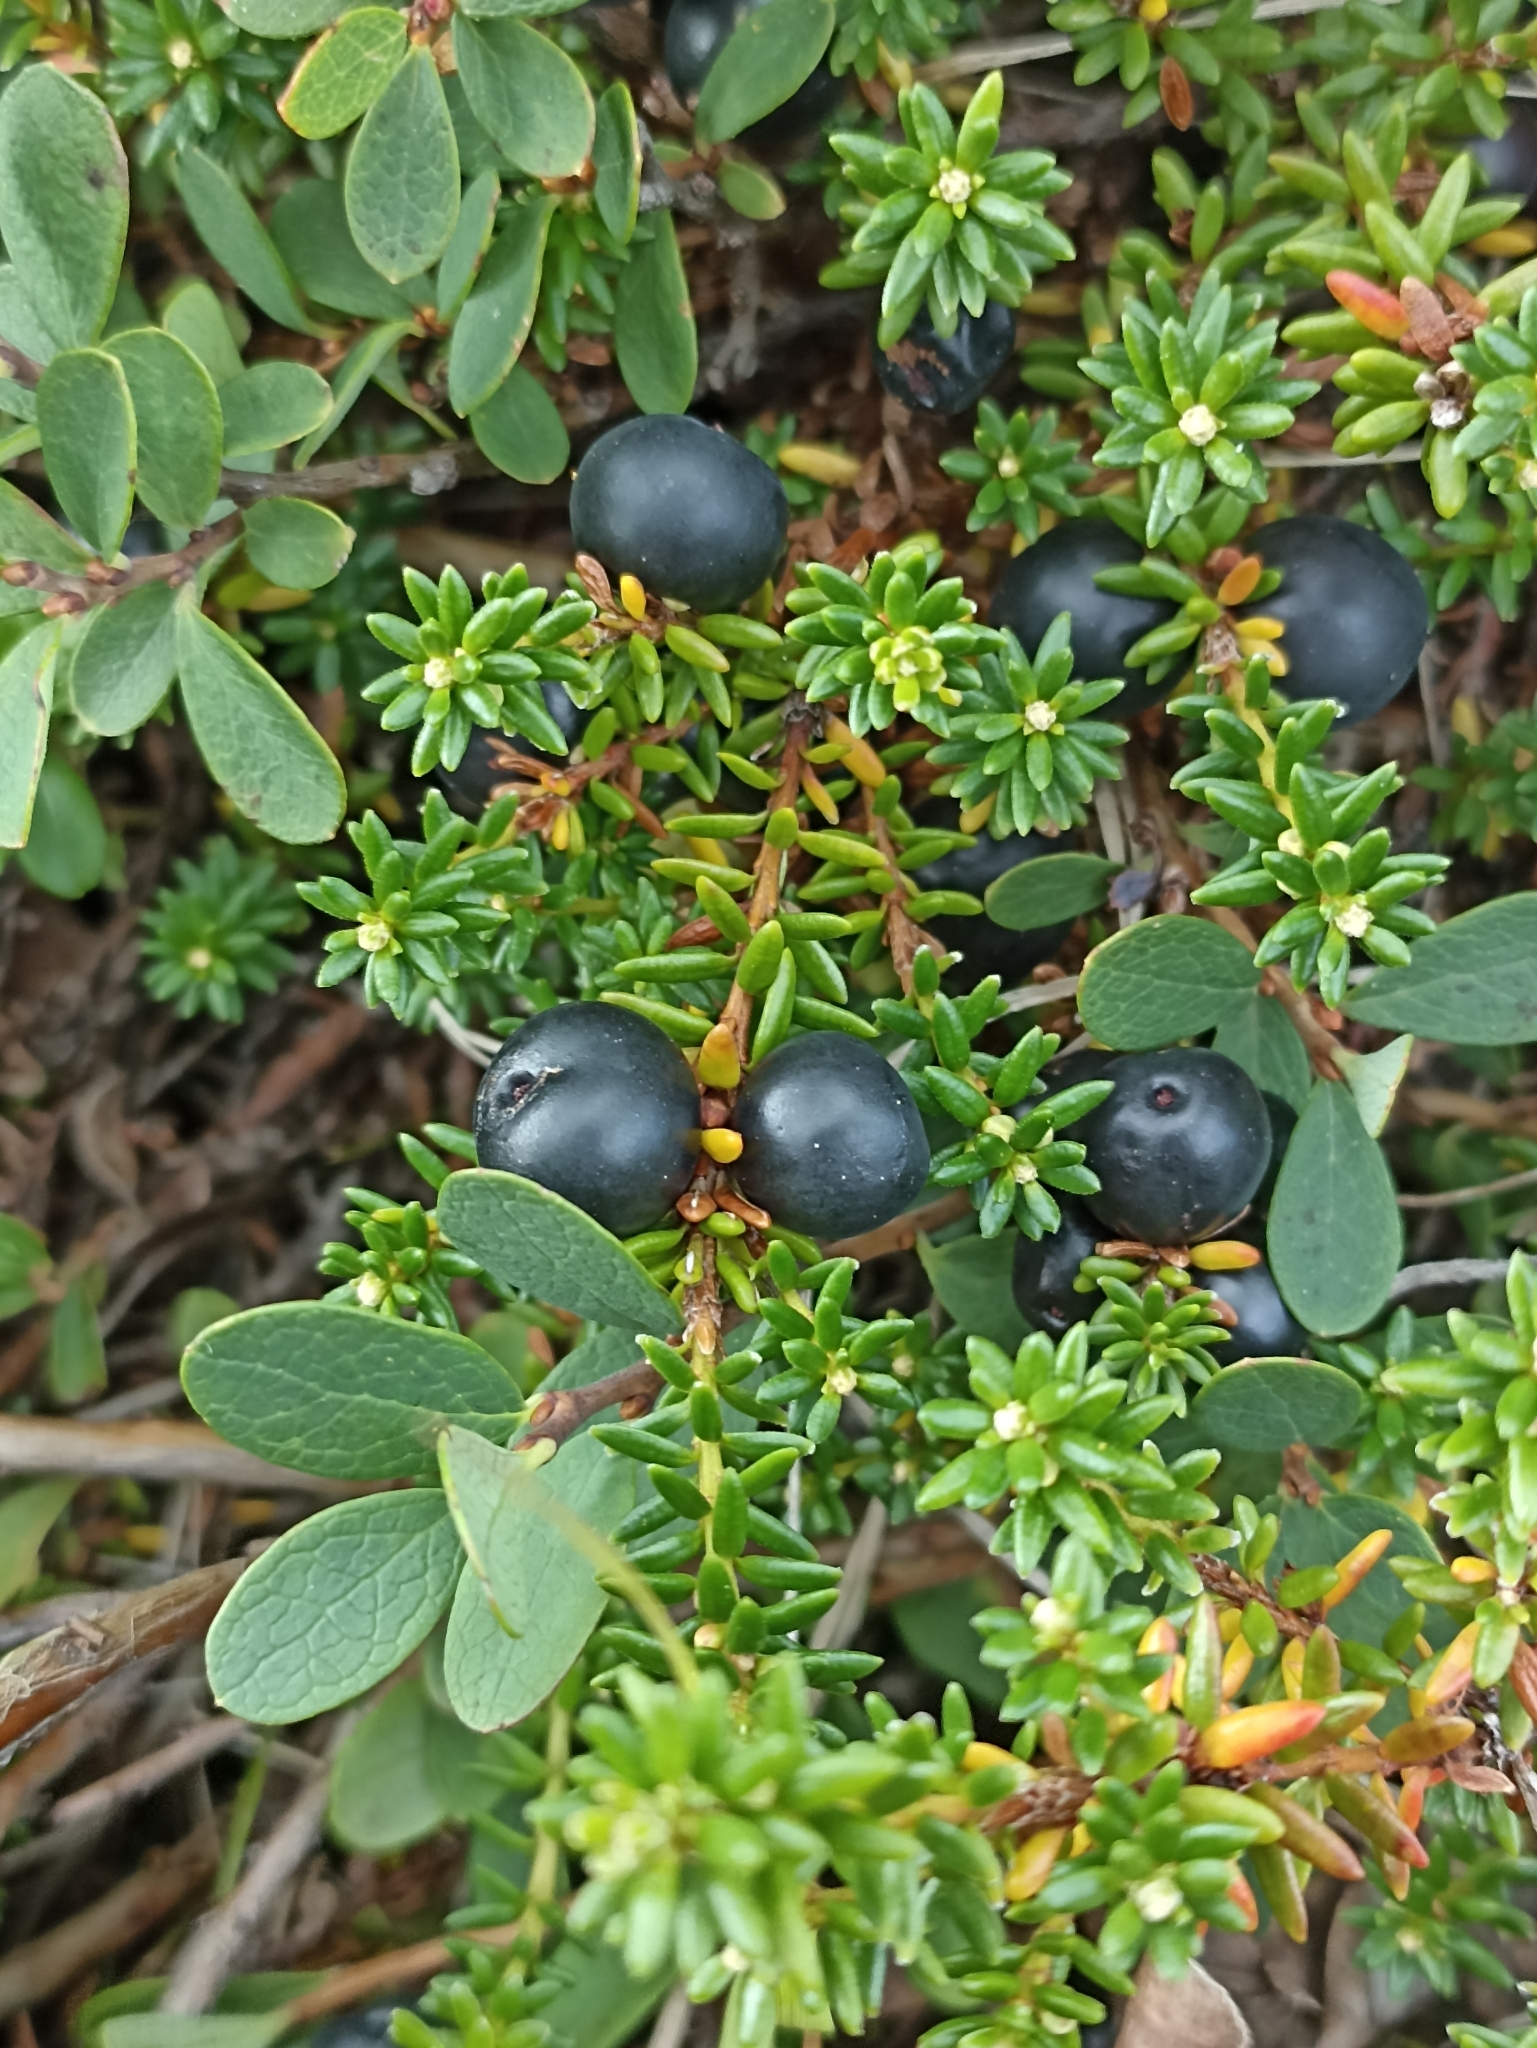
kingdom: Plantae
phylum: Tracheophyta
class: Magnoliopsida
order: Ericales
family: Ericaceae
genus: Empetrum
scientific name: Empetrum nigrum
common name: Black crowberry
